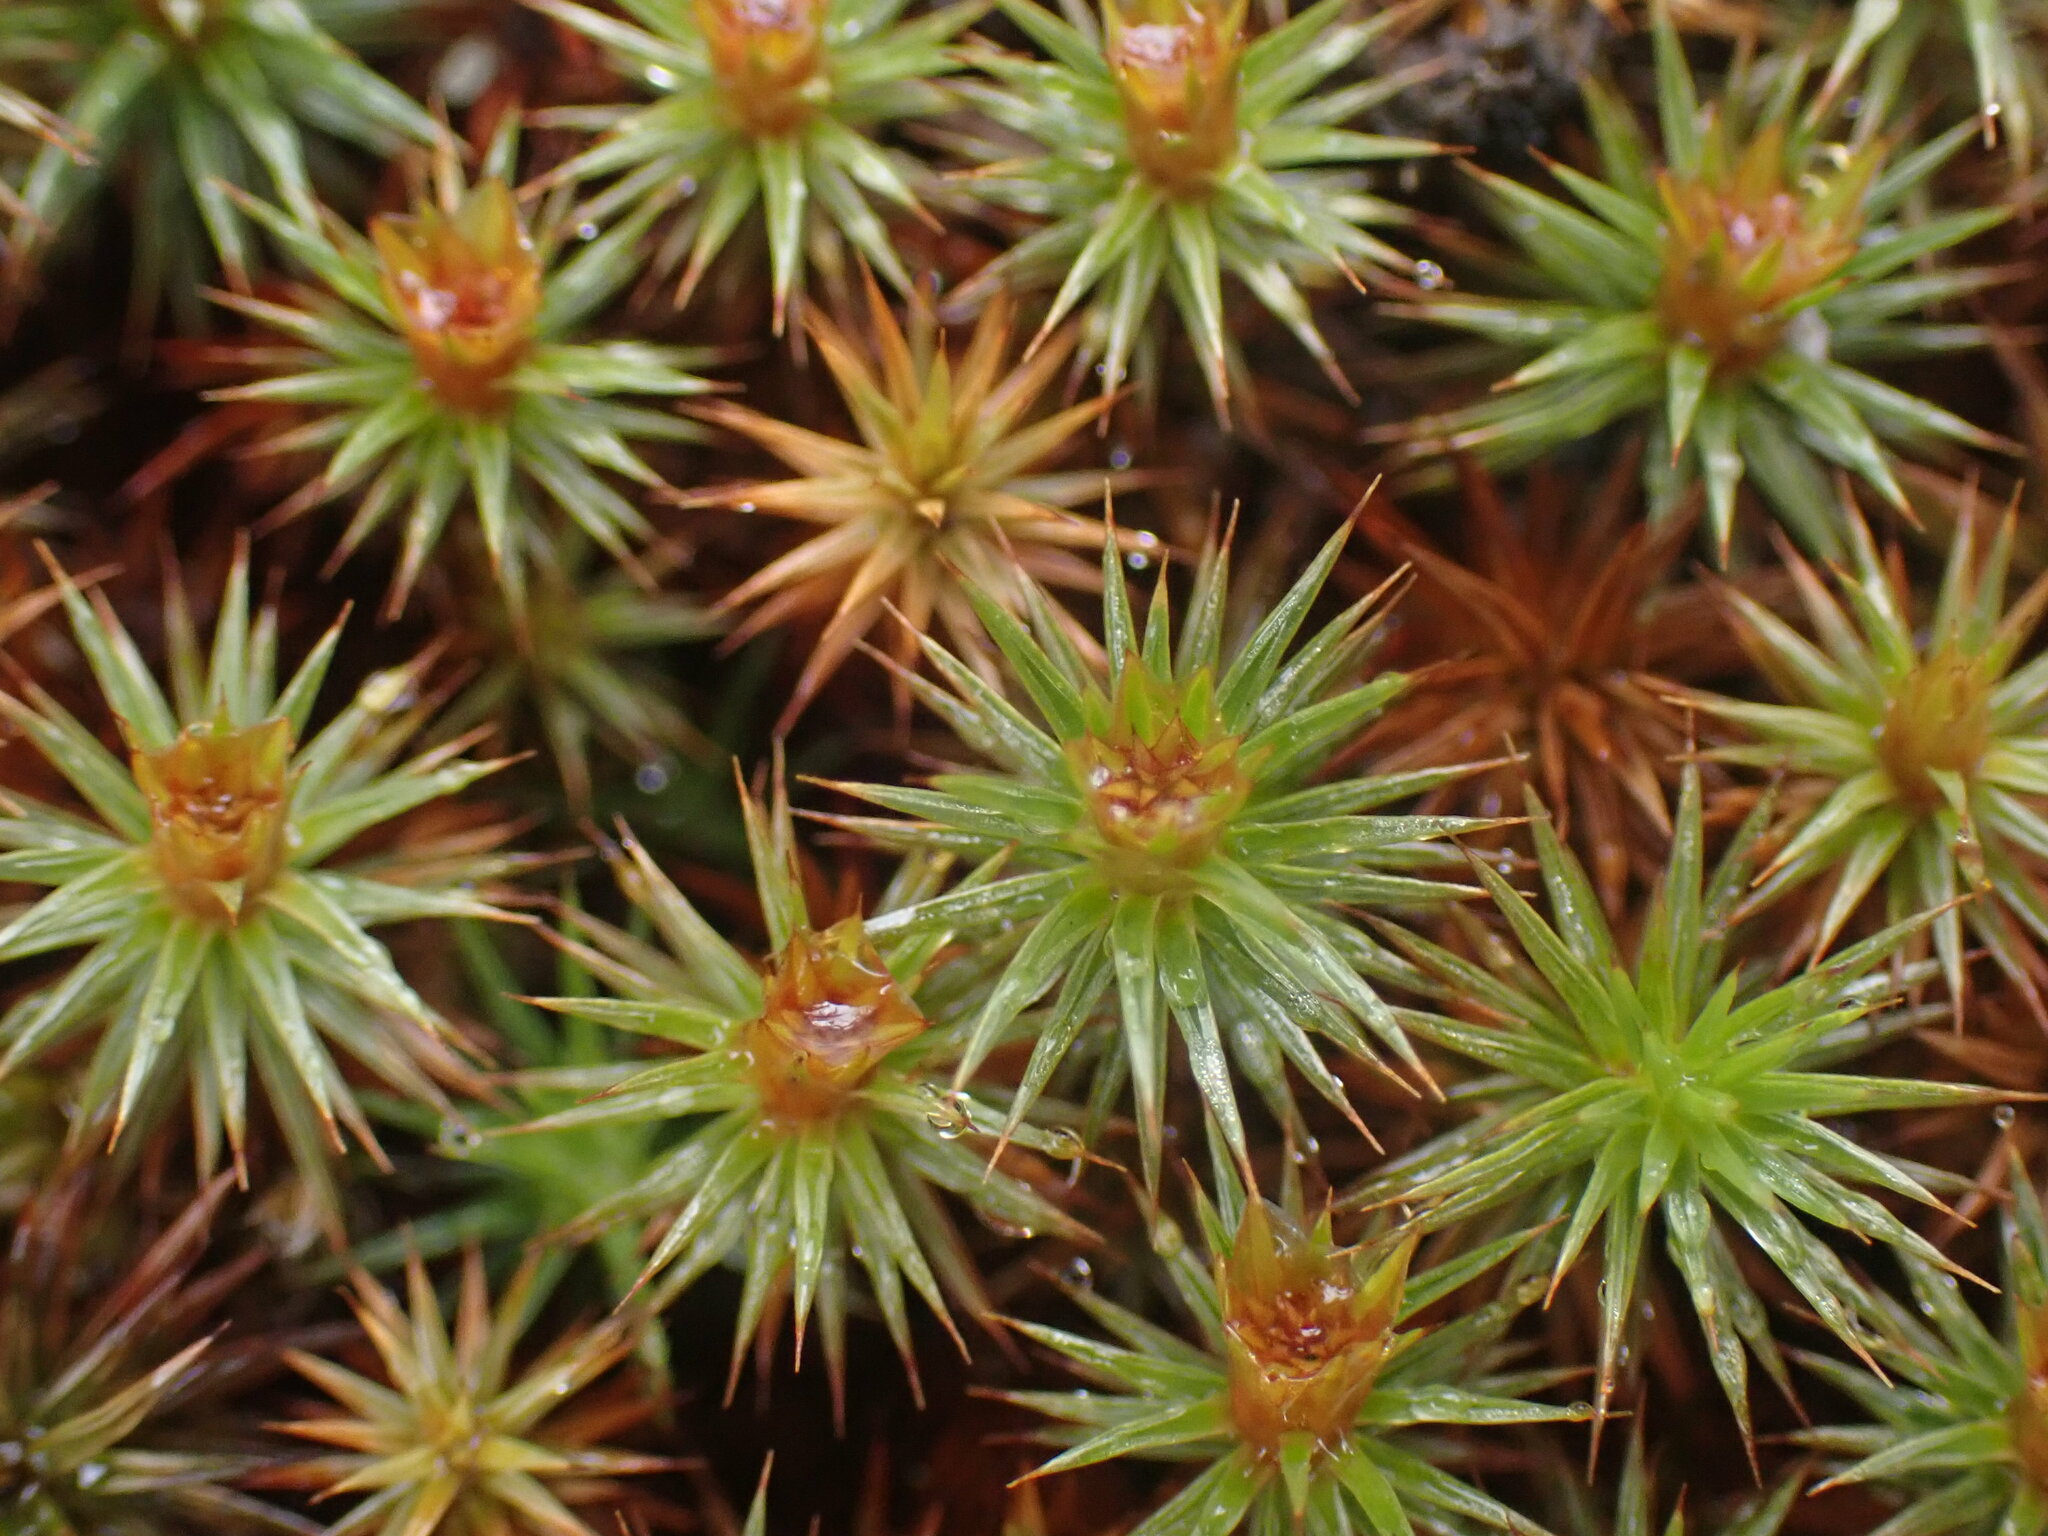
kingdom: Plantae
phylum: Bryophyta
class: Polytrichopsida
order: Polytrichales
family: Polytrichaceae
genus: Polytrichum
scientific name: Polytrichum juniperinum
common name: Juniper haircap moss
